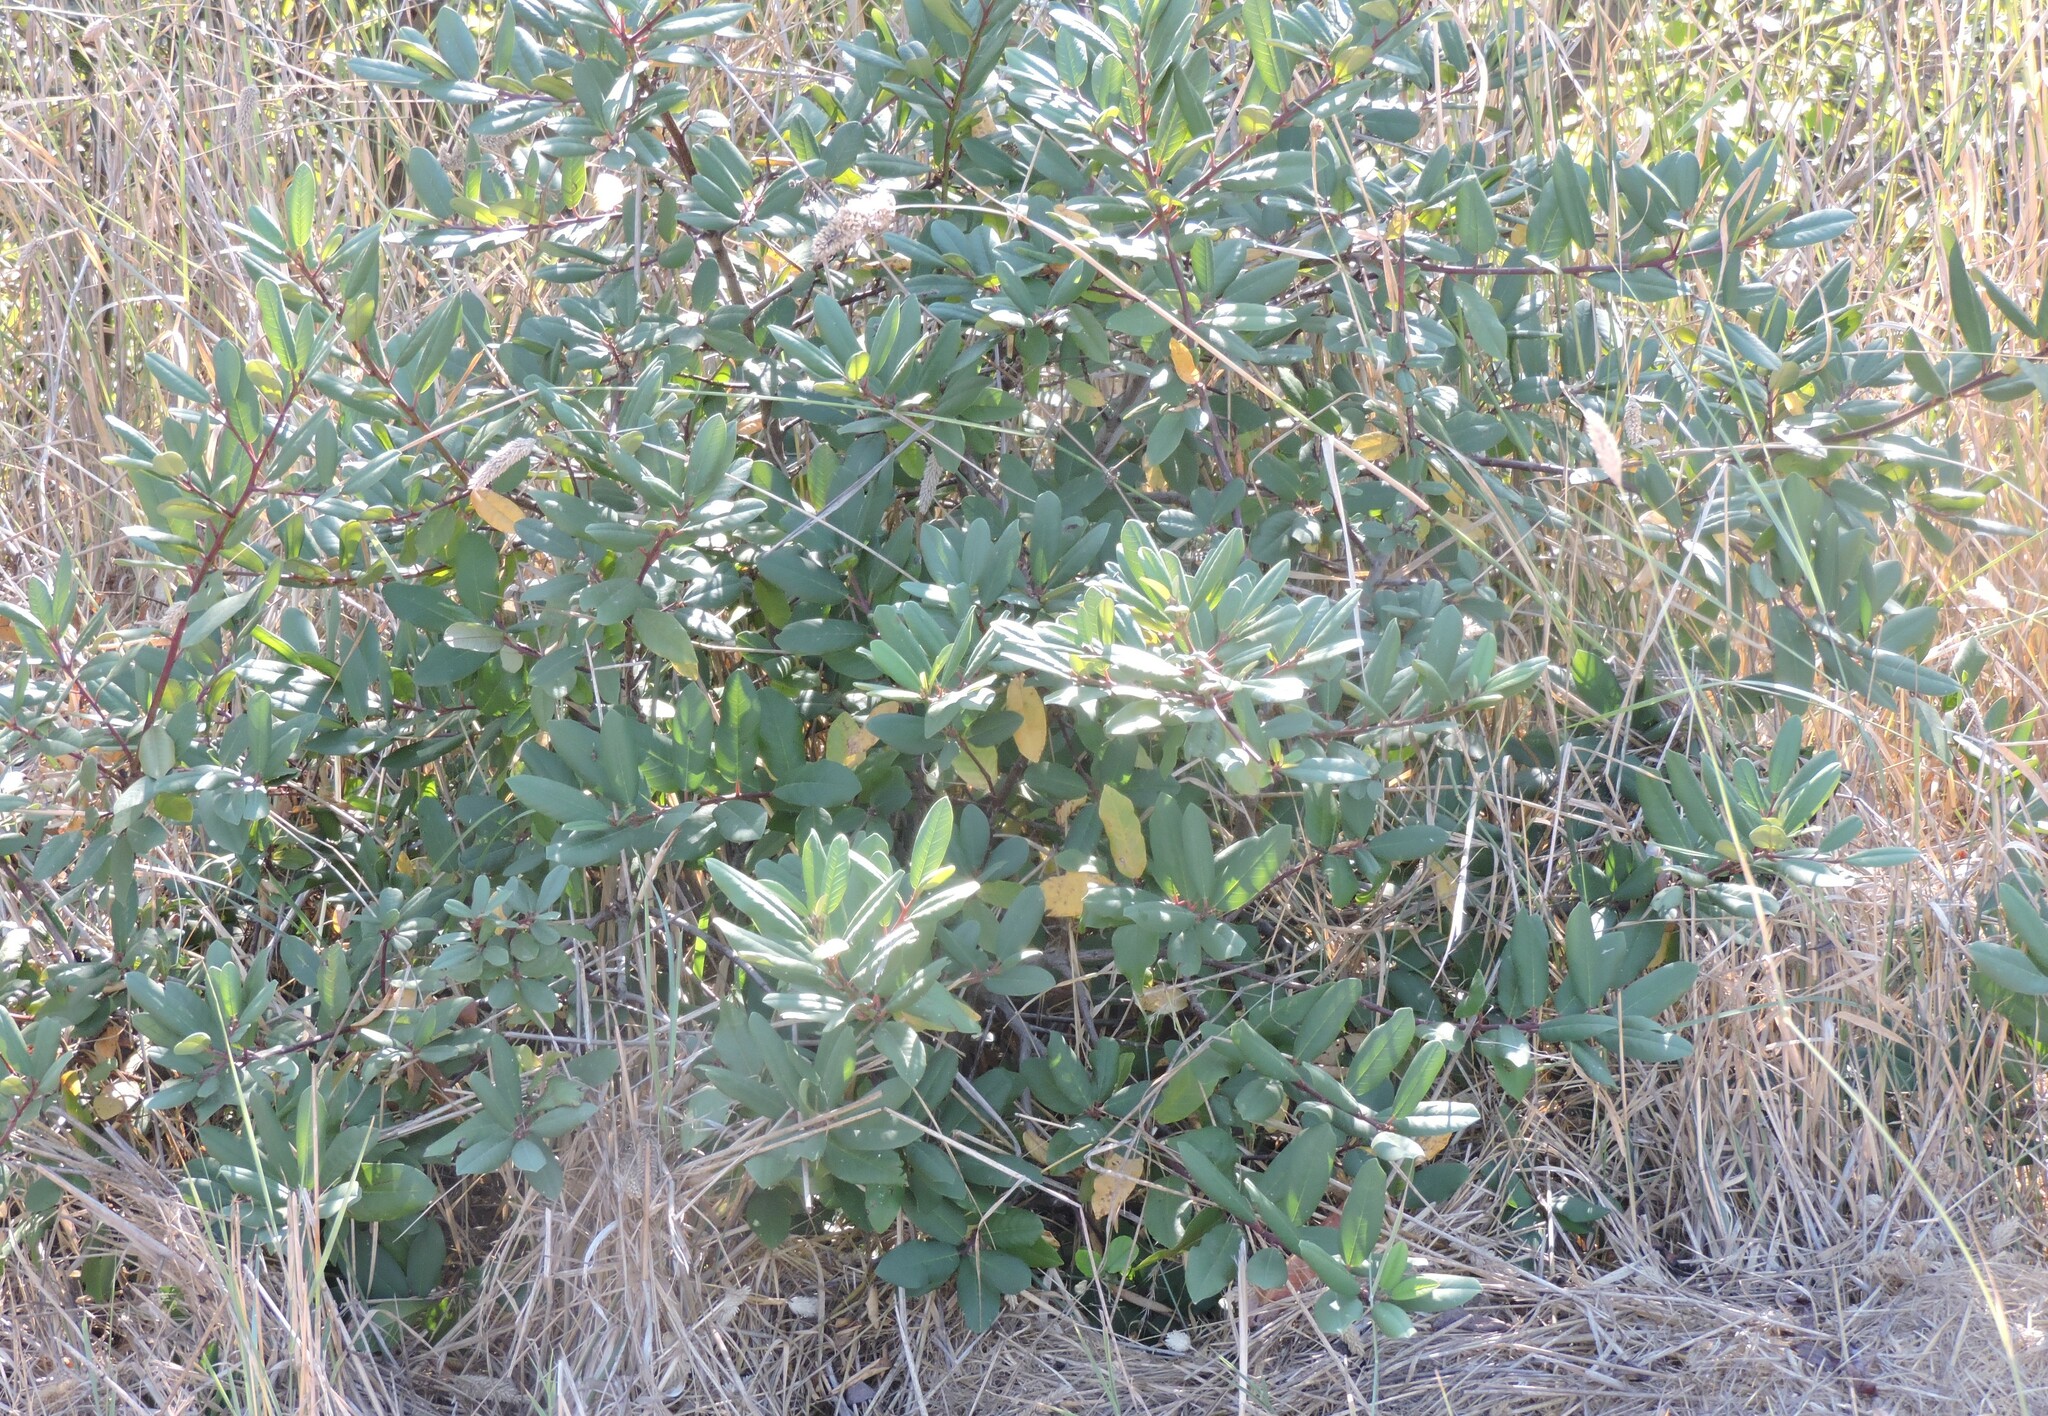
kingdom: Plantae
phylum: Tracheophyta
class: Magnoliopsida
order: Rosales
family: Rhamnaceae
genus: Frangula
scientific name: Frangula californica
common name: California buckthorn
